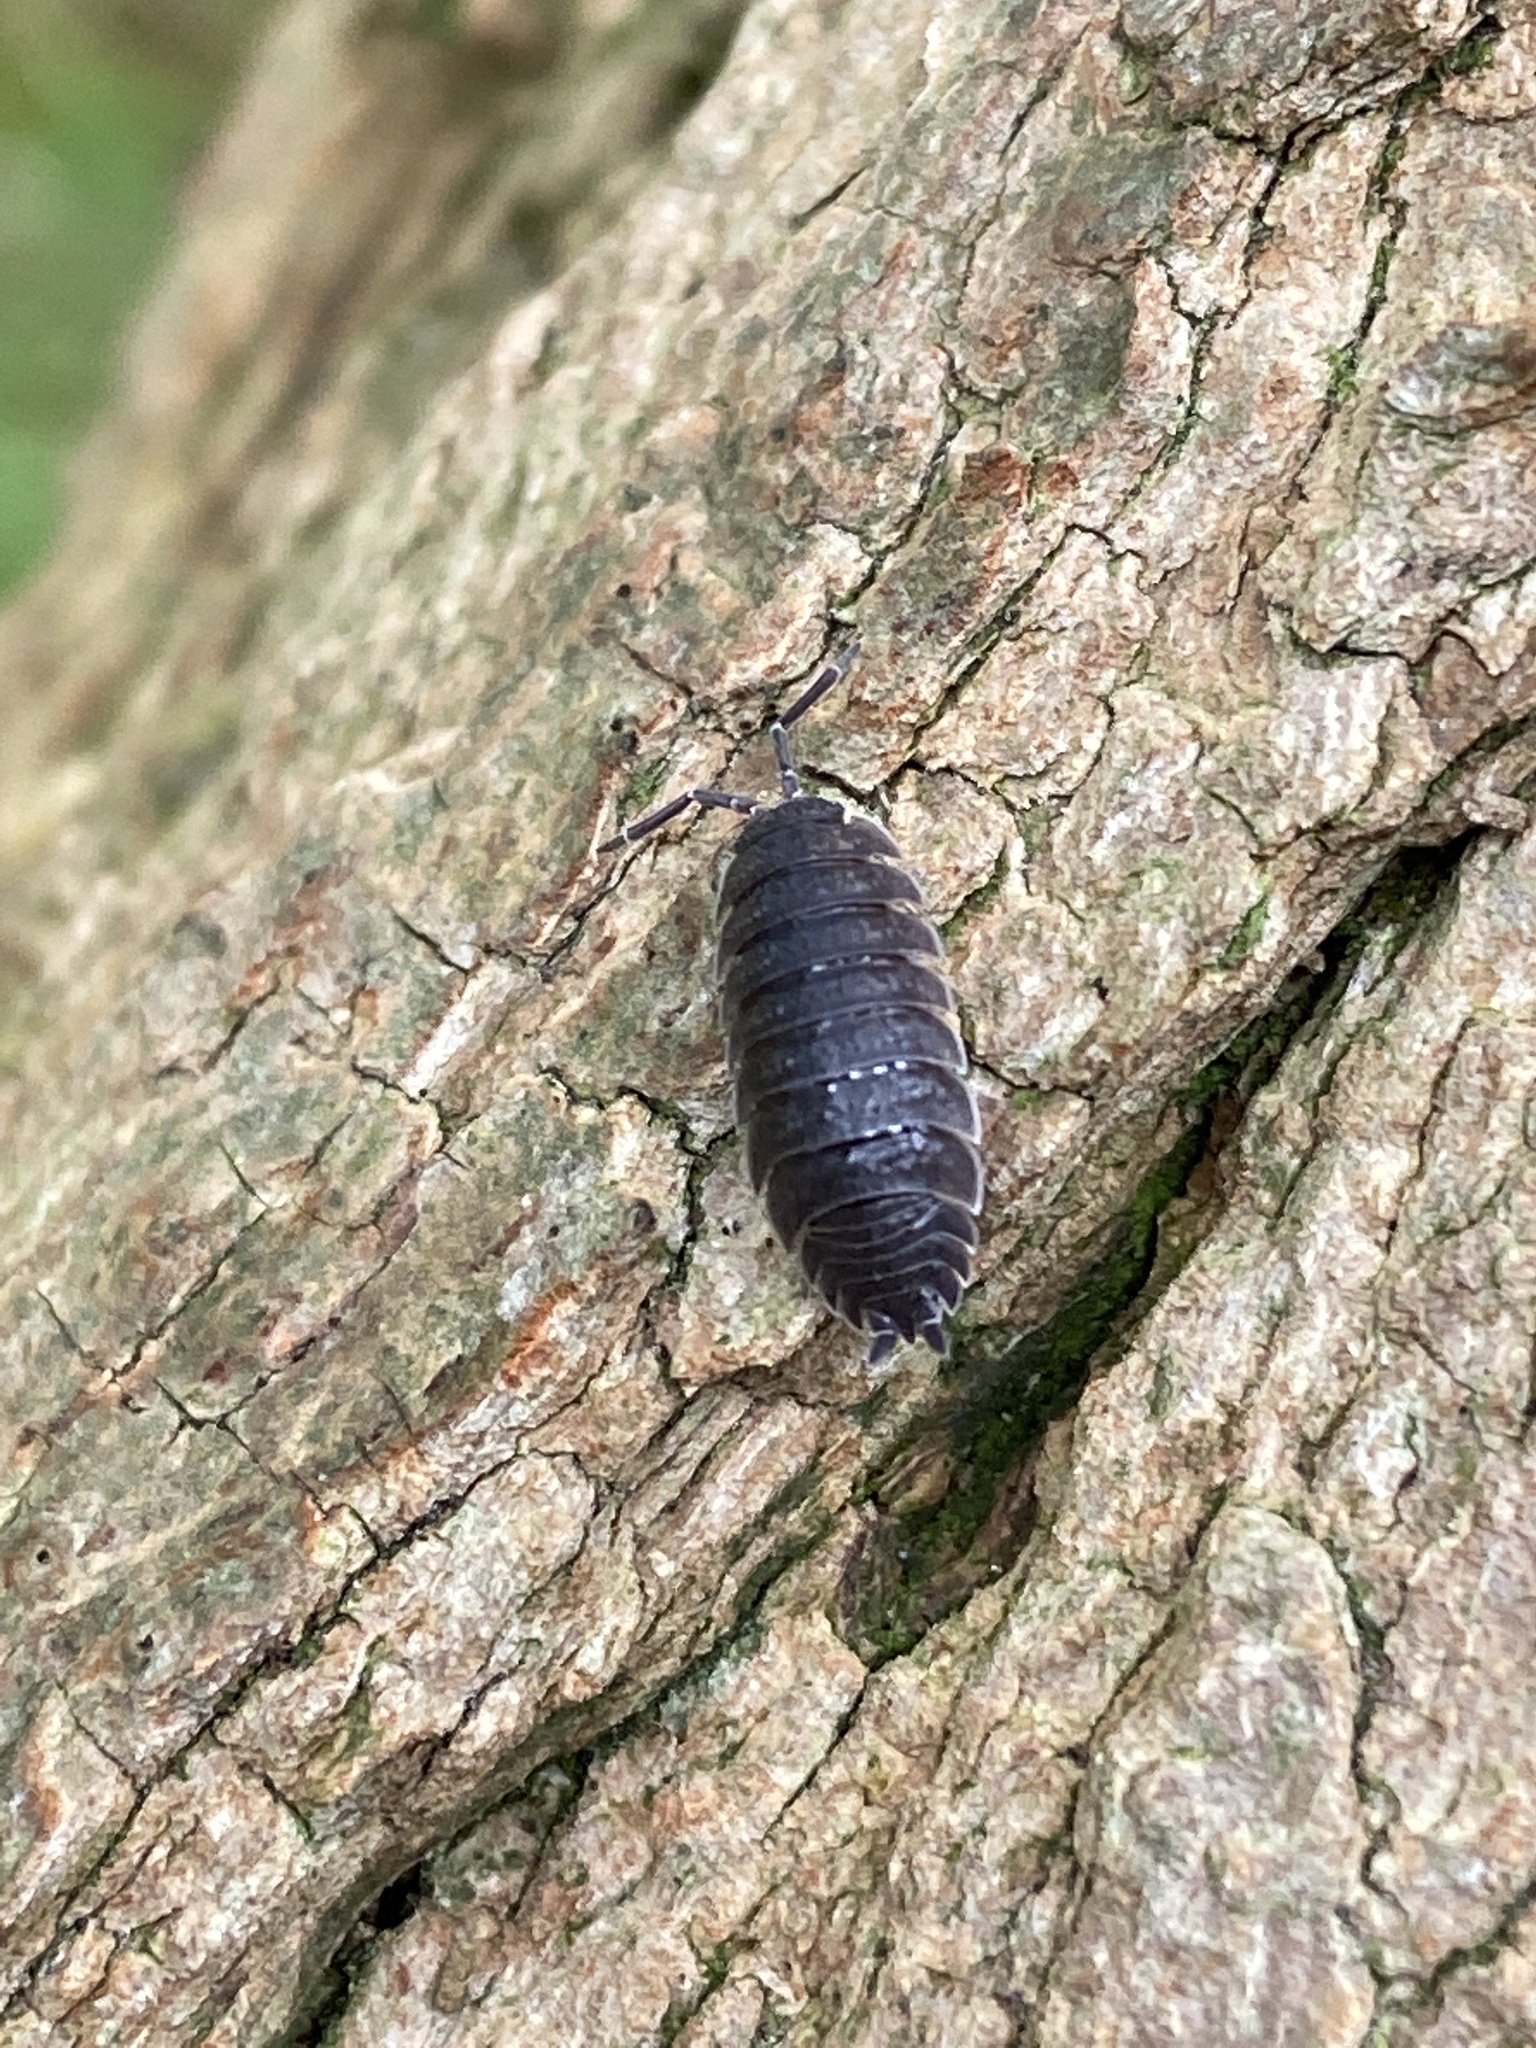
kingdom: Animalia
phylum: Arthropoda
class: Malacostraca
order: Isopoda
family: Porcellionidae
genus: Porcellio
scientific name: Porcellio scaber
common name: Common rough woodlouse
